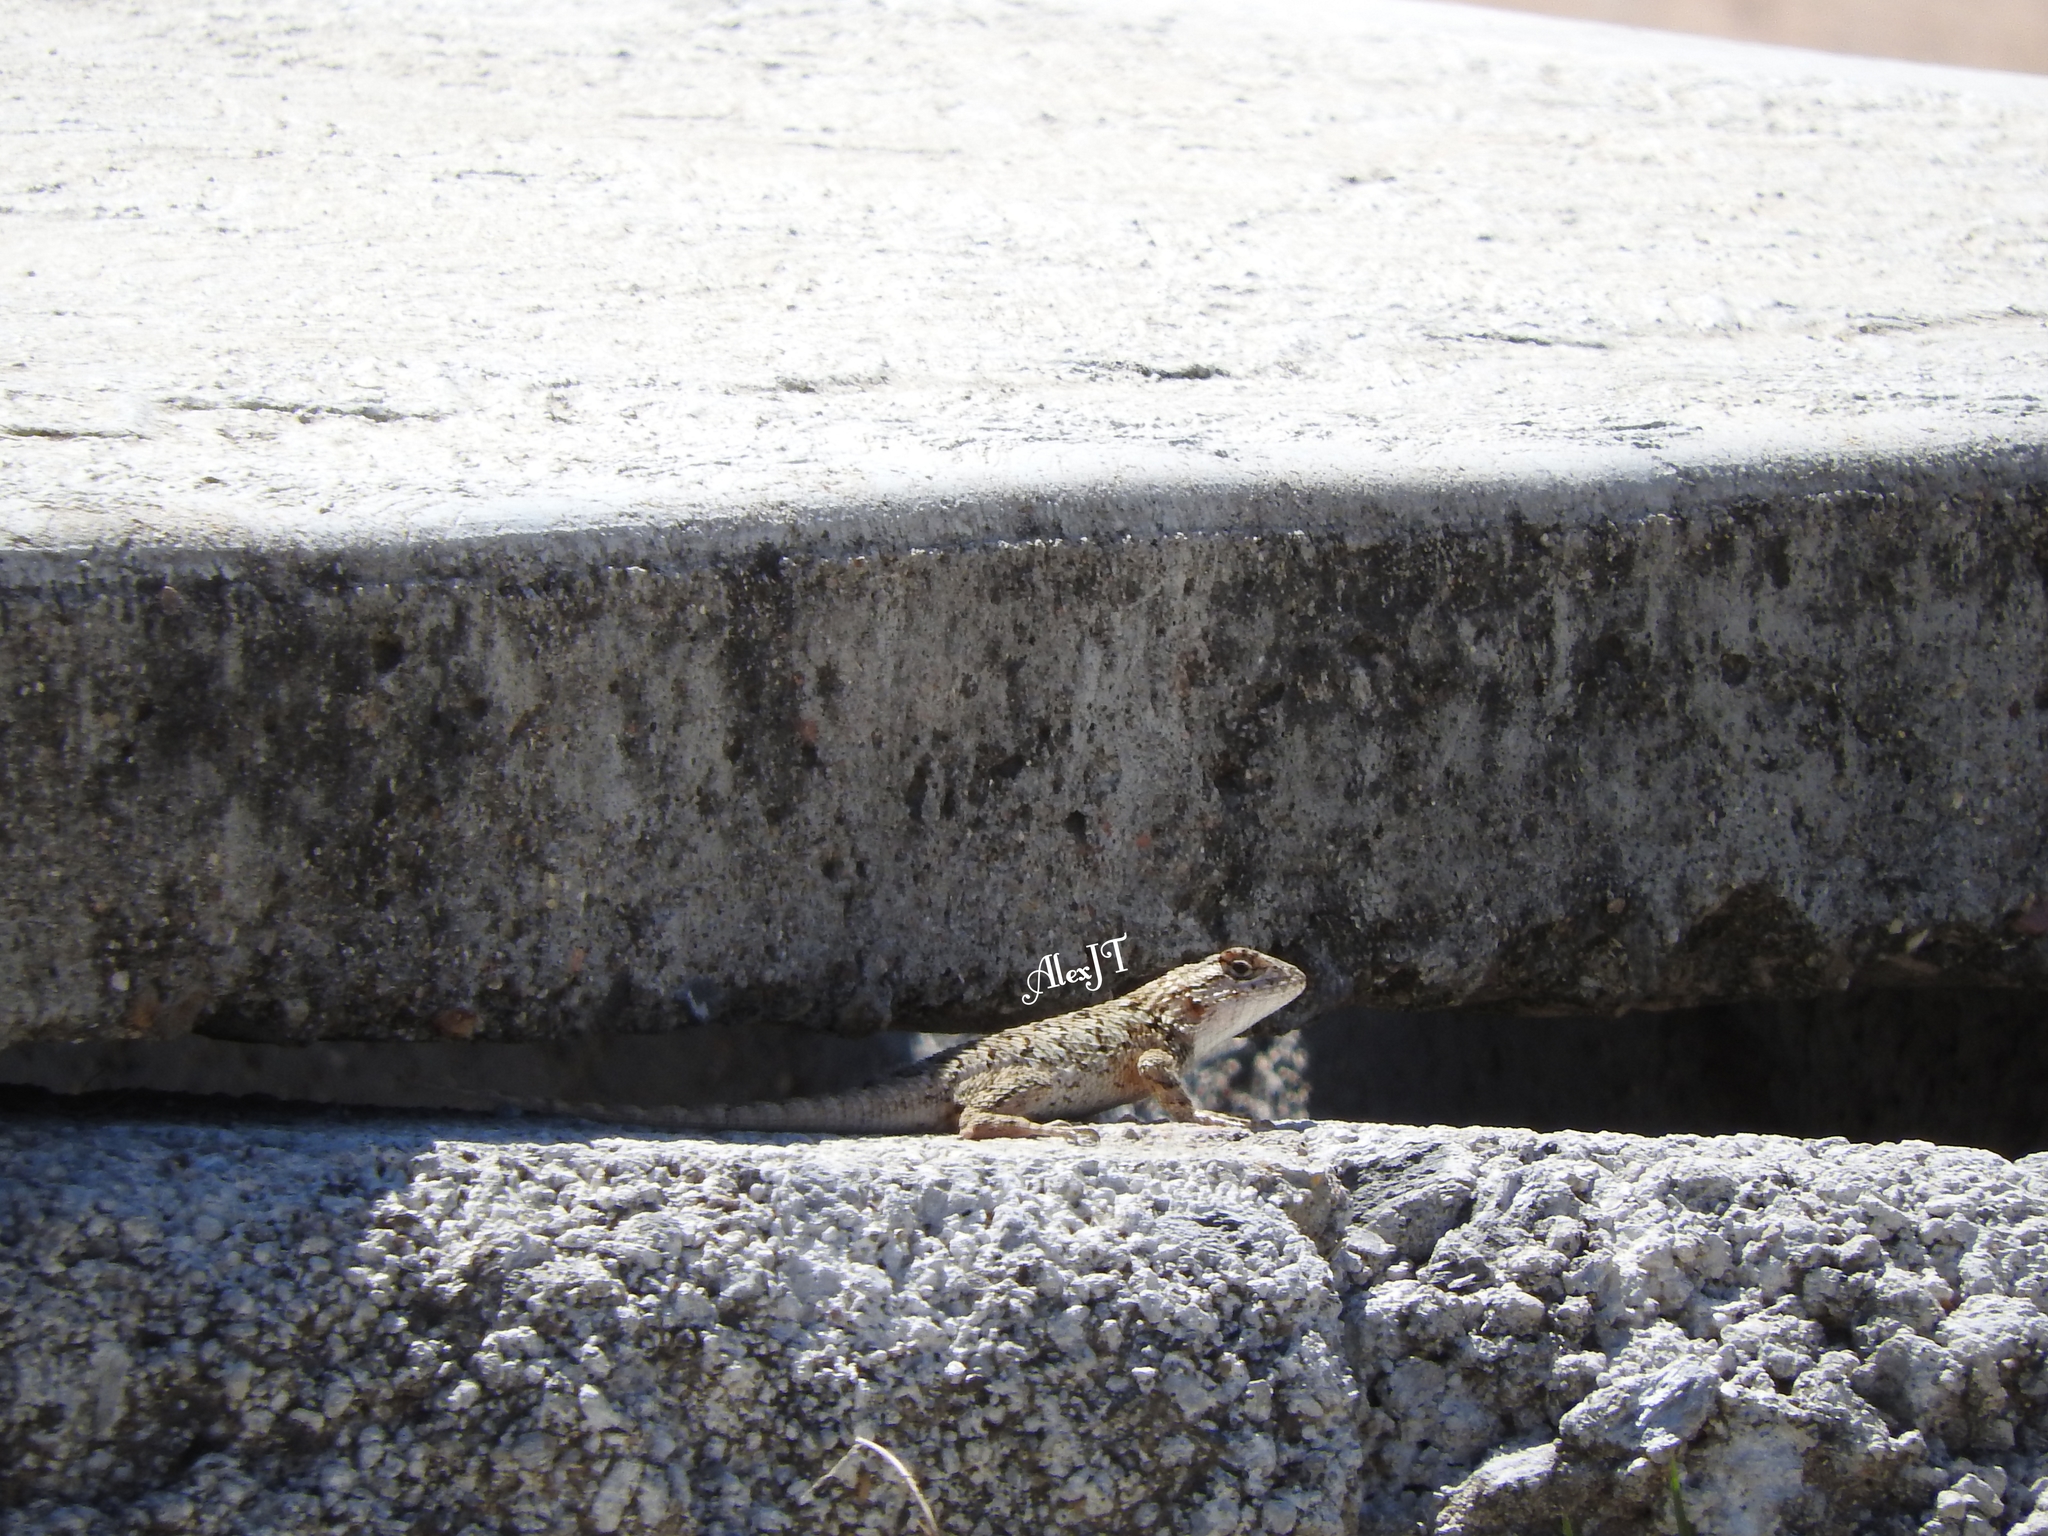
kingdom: Animalia
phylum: Chordata
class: Squamata
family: Phrynosomatidae
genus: Sceloporus
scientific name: Sceloporus spinosus
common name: Blue-spotted spiny lizard [caeruleopunctatus]
